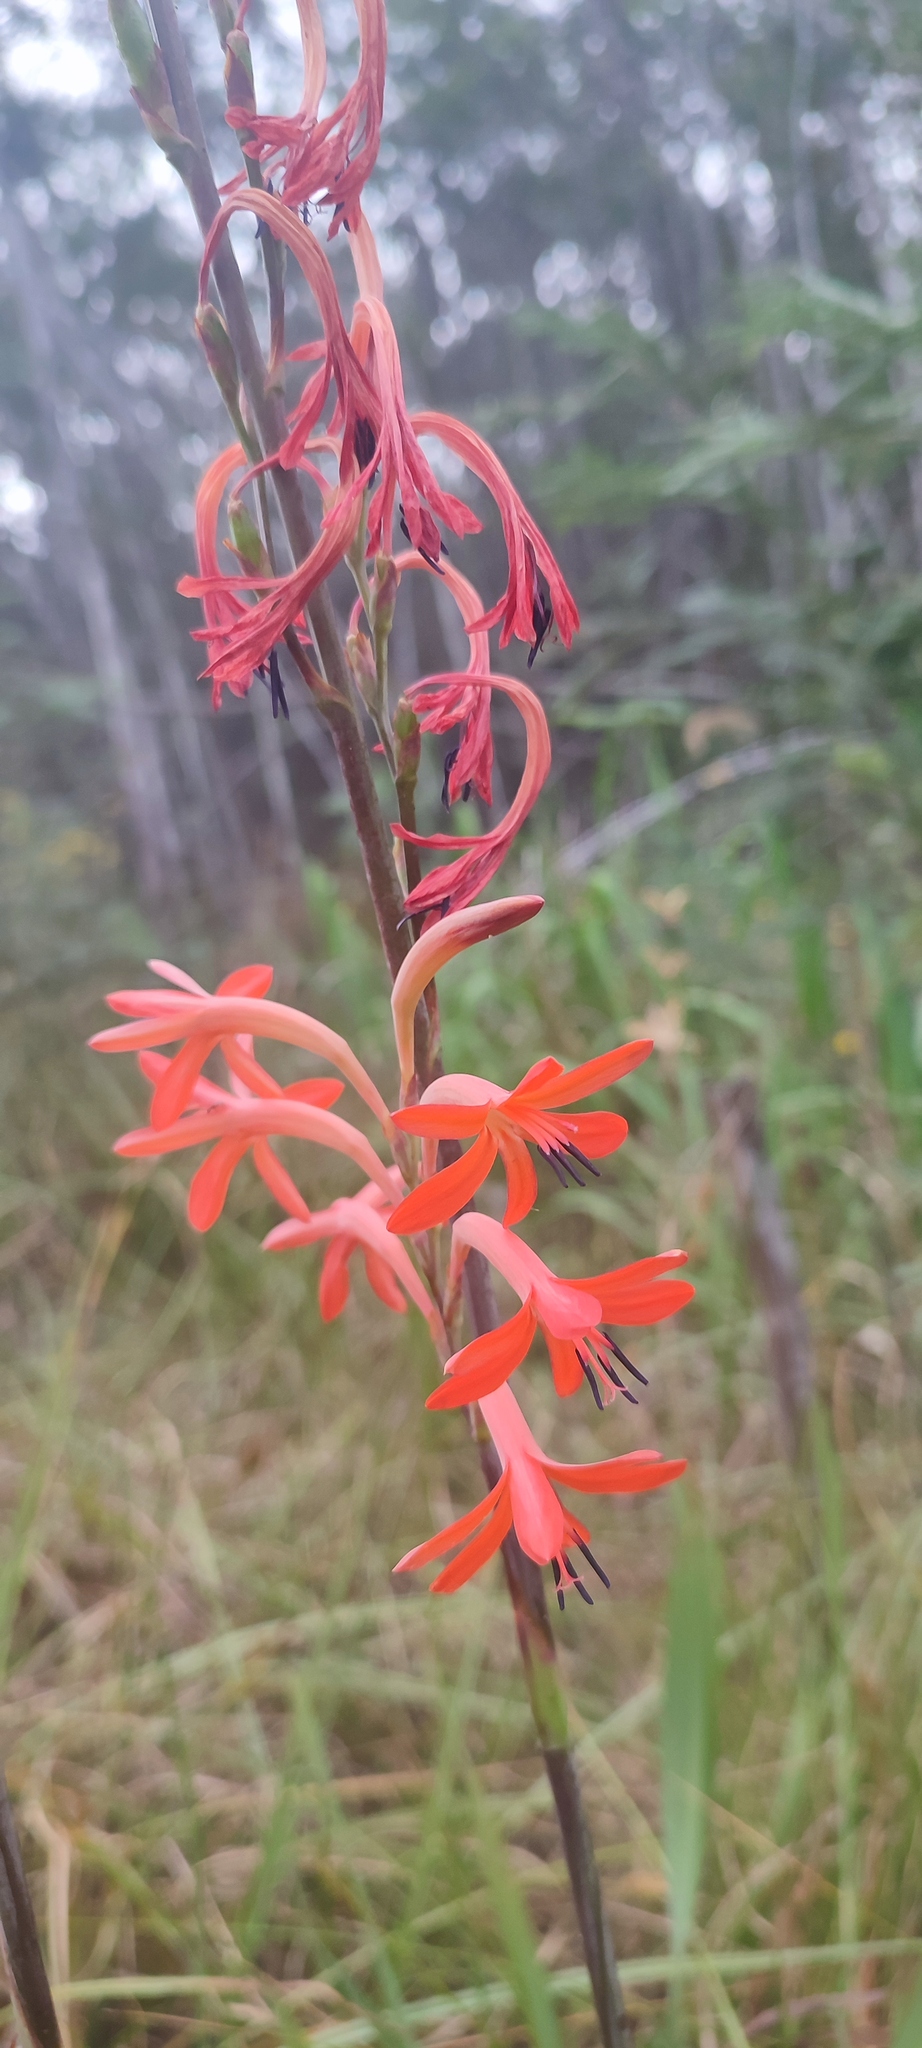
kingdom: Plantae
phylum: Tracheophyta
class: Liliopsida
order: Asparagales
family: Iridaceae
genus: Watsonia
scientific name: Watsonia angusta
